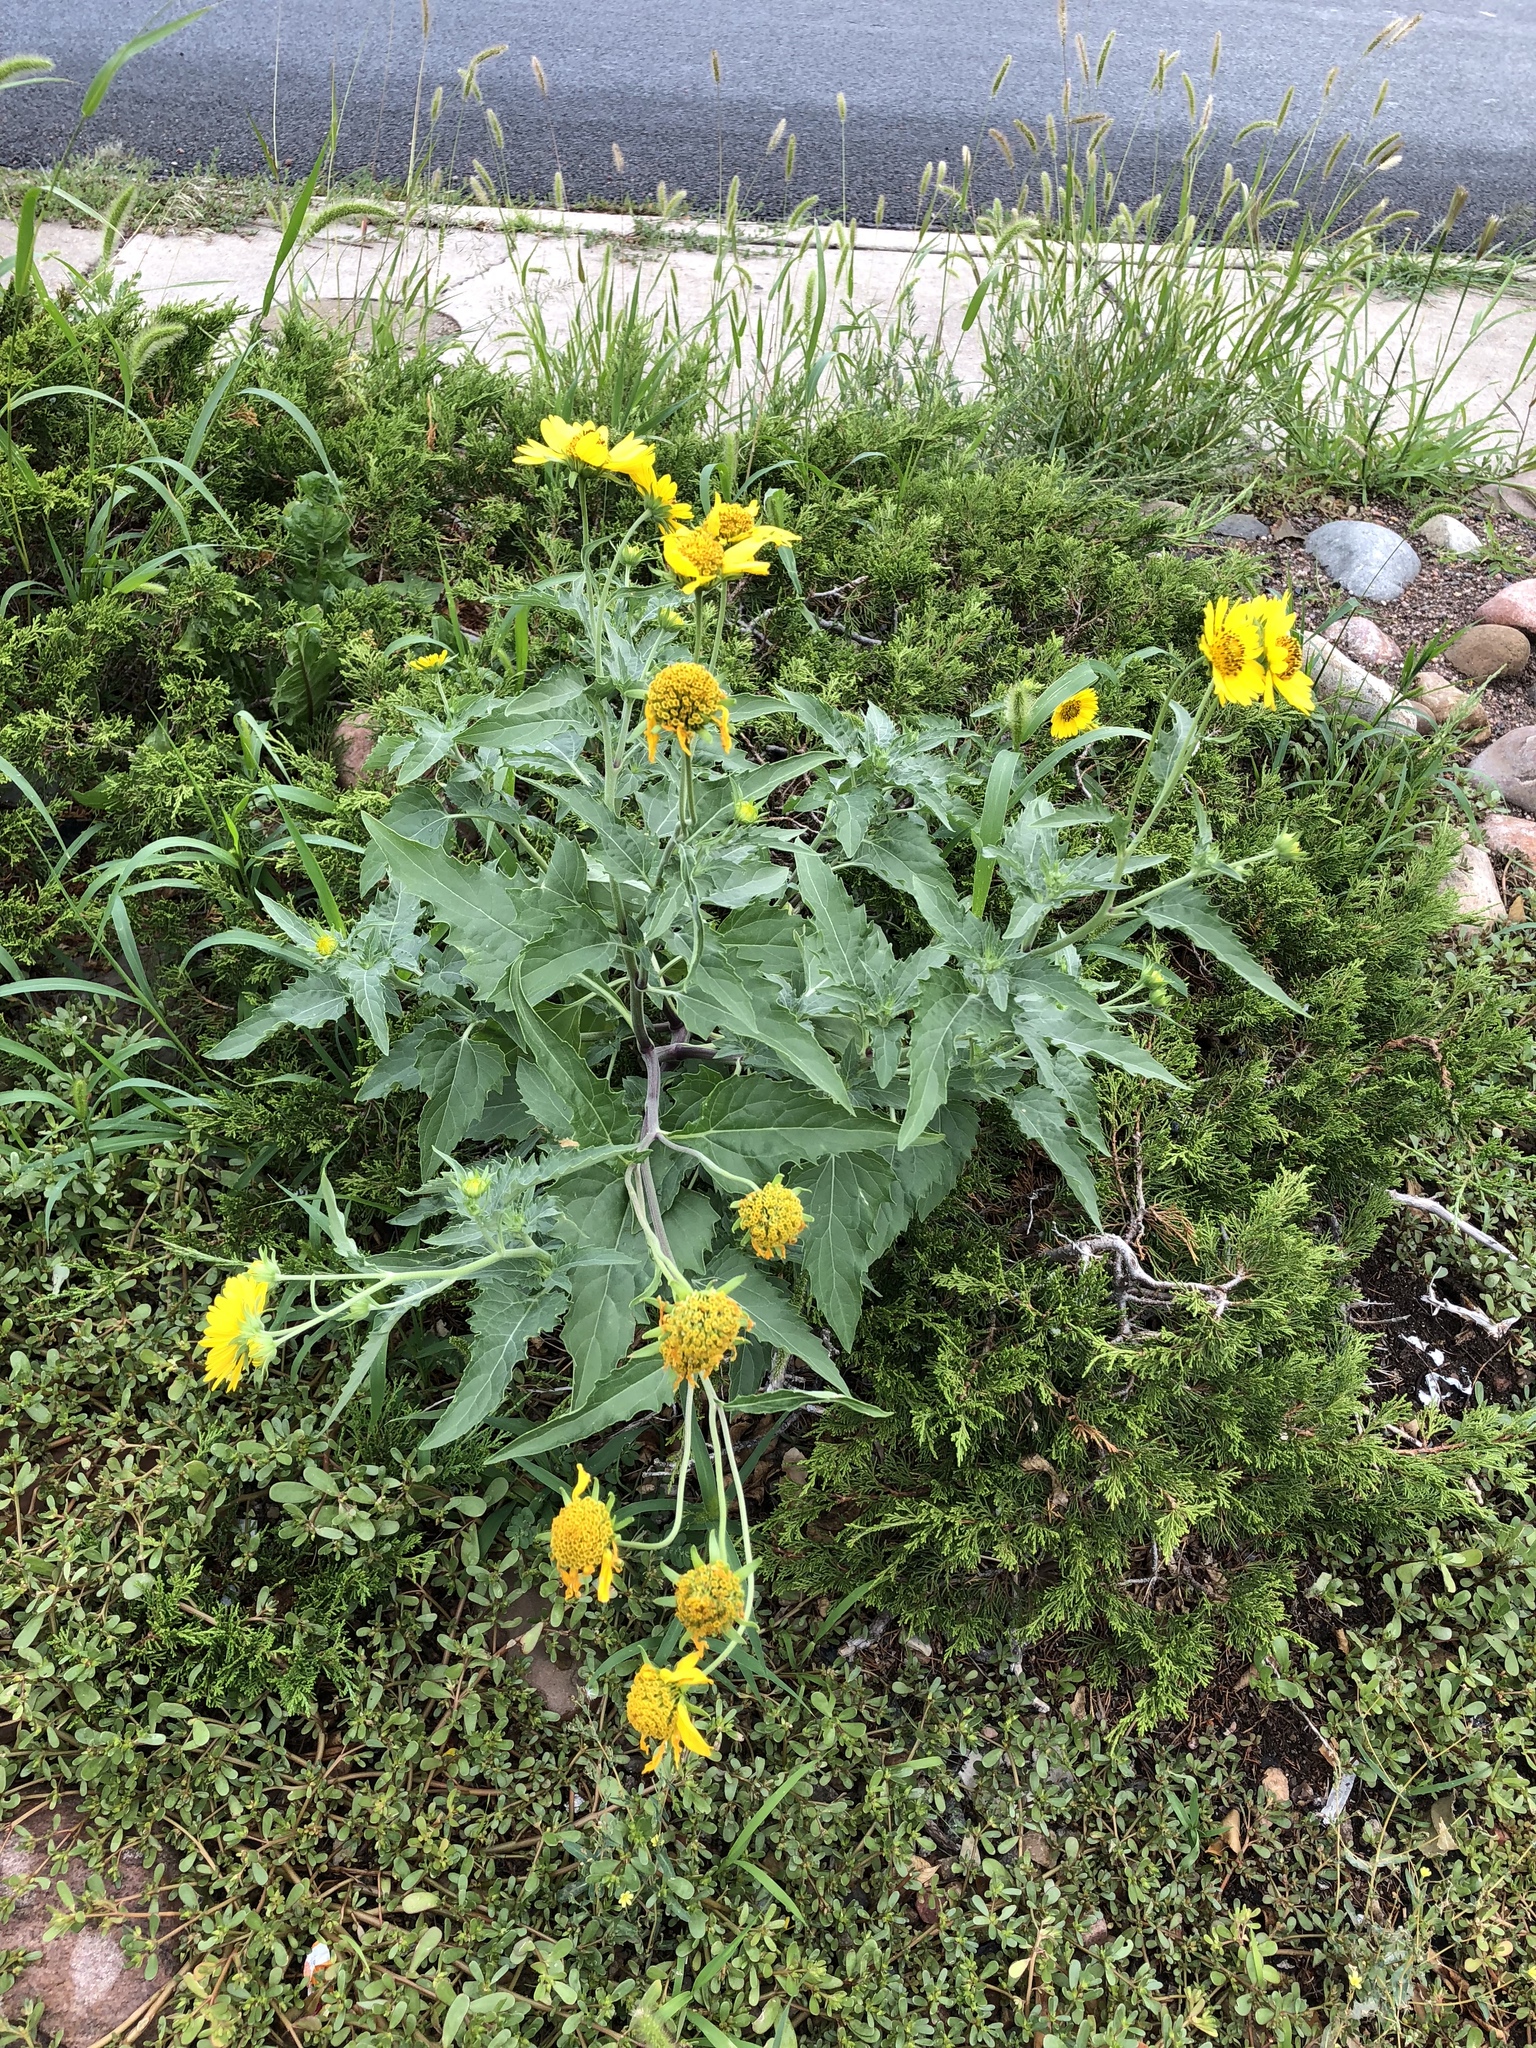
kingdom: Plantae
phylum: Tracheophyta
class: Magnoliopsida
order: Asterales
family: Asteraceae
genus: Verbesina
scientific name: Verbesina encelioides
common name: Golden crownbeard
